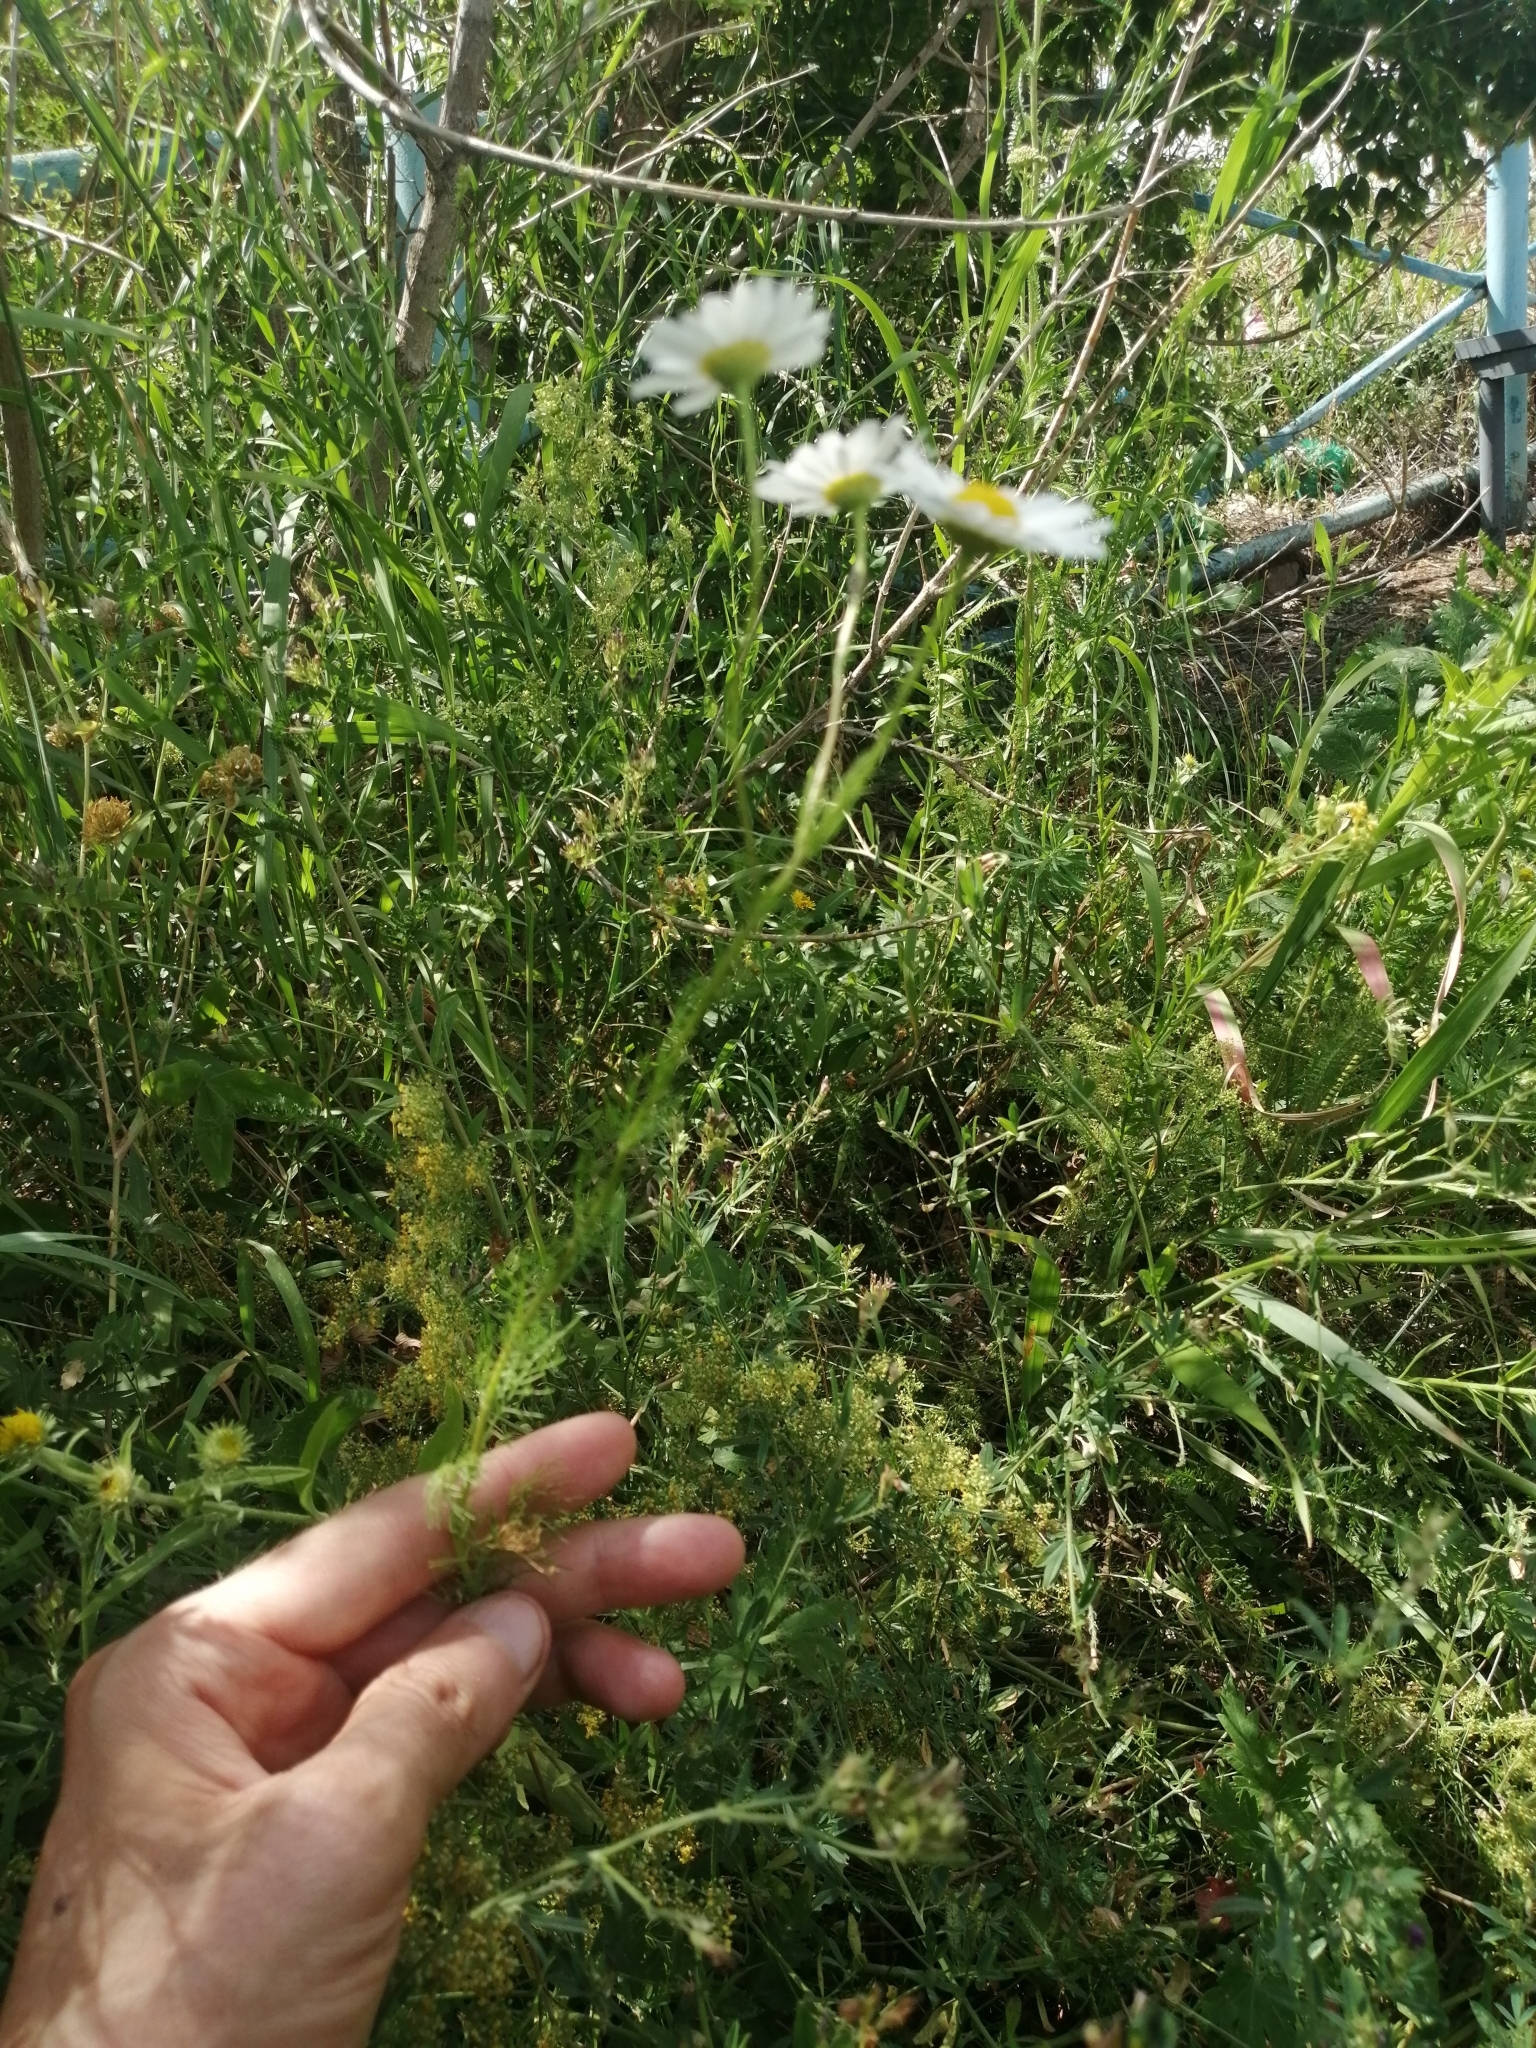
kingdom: Plantae
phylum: Tracheophyta
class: Magnoliopsida
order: Asterales
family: Asteraceae
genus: Tripleurospermum
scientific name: Tripleurospermum inodorum
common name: Scentless mayweed
